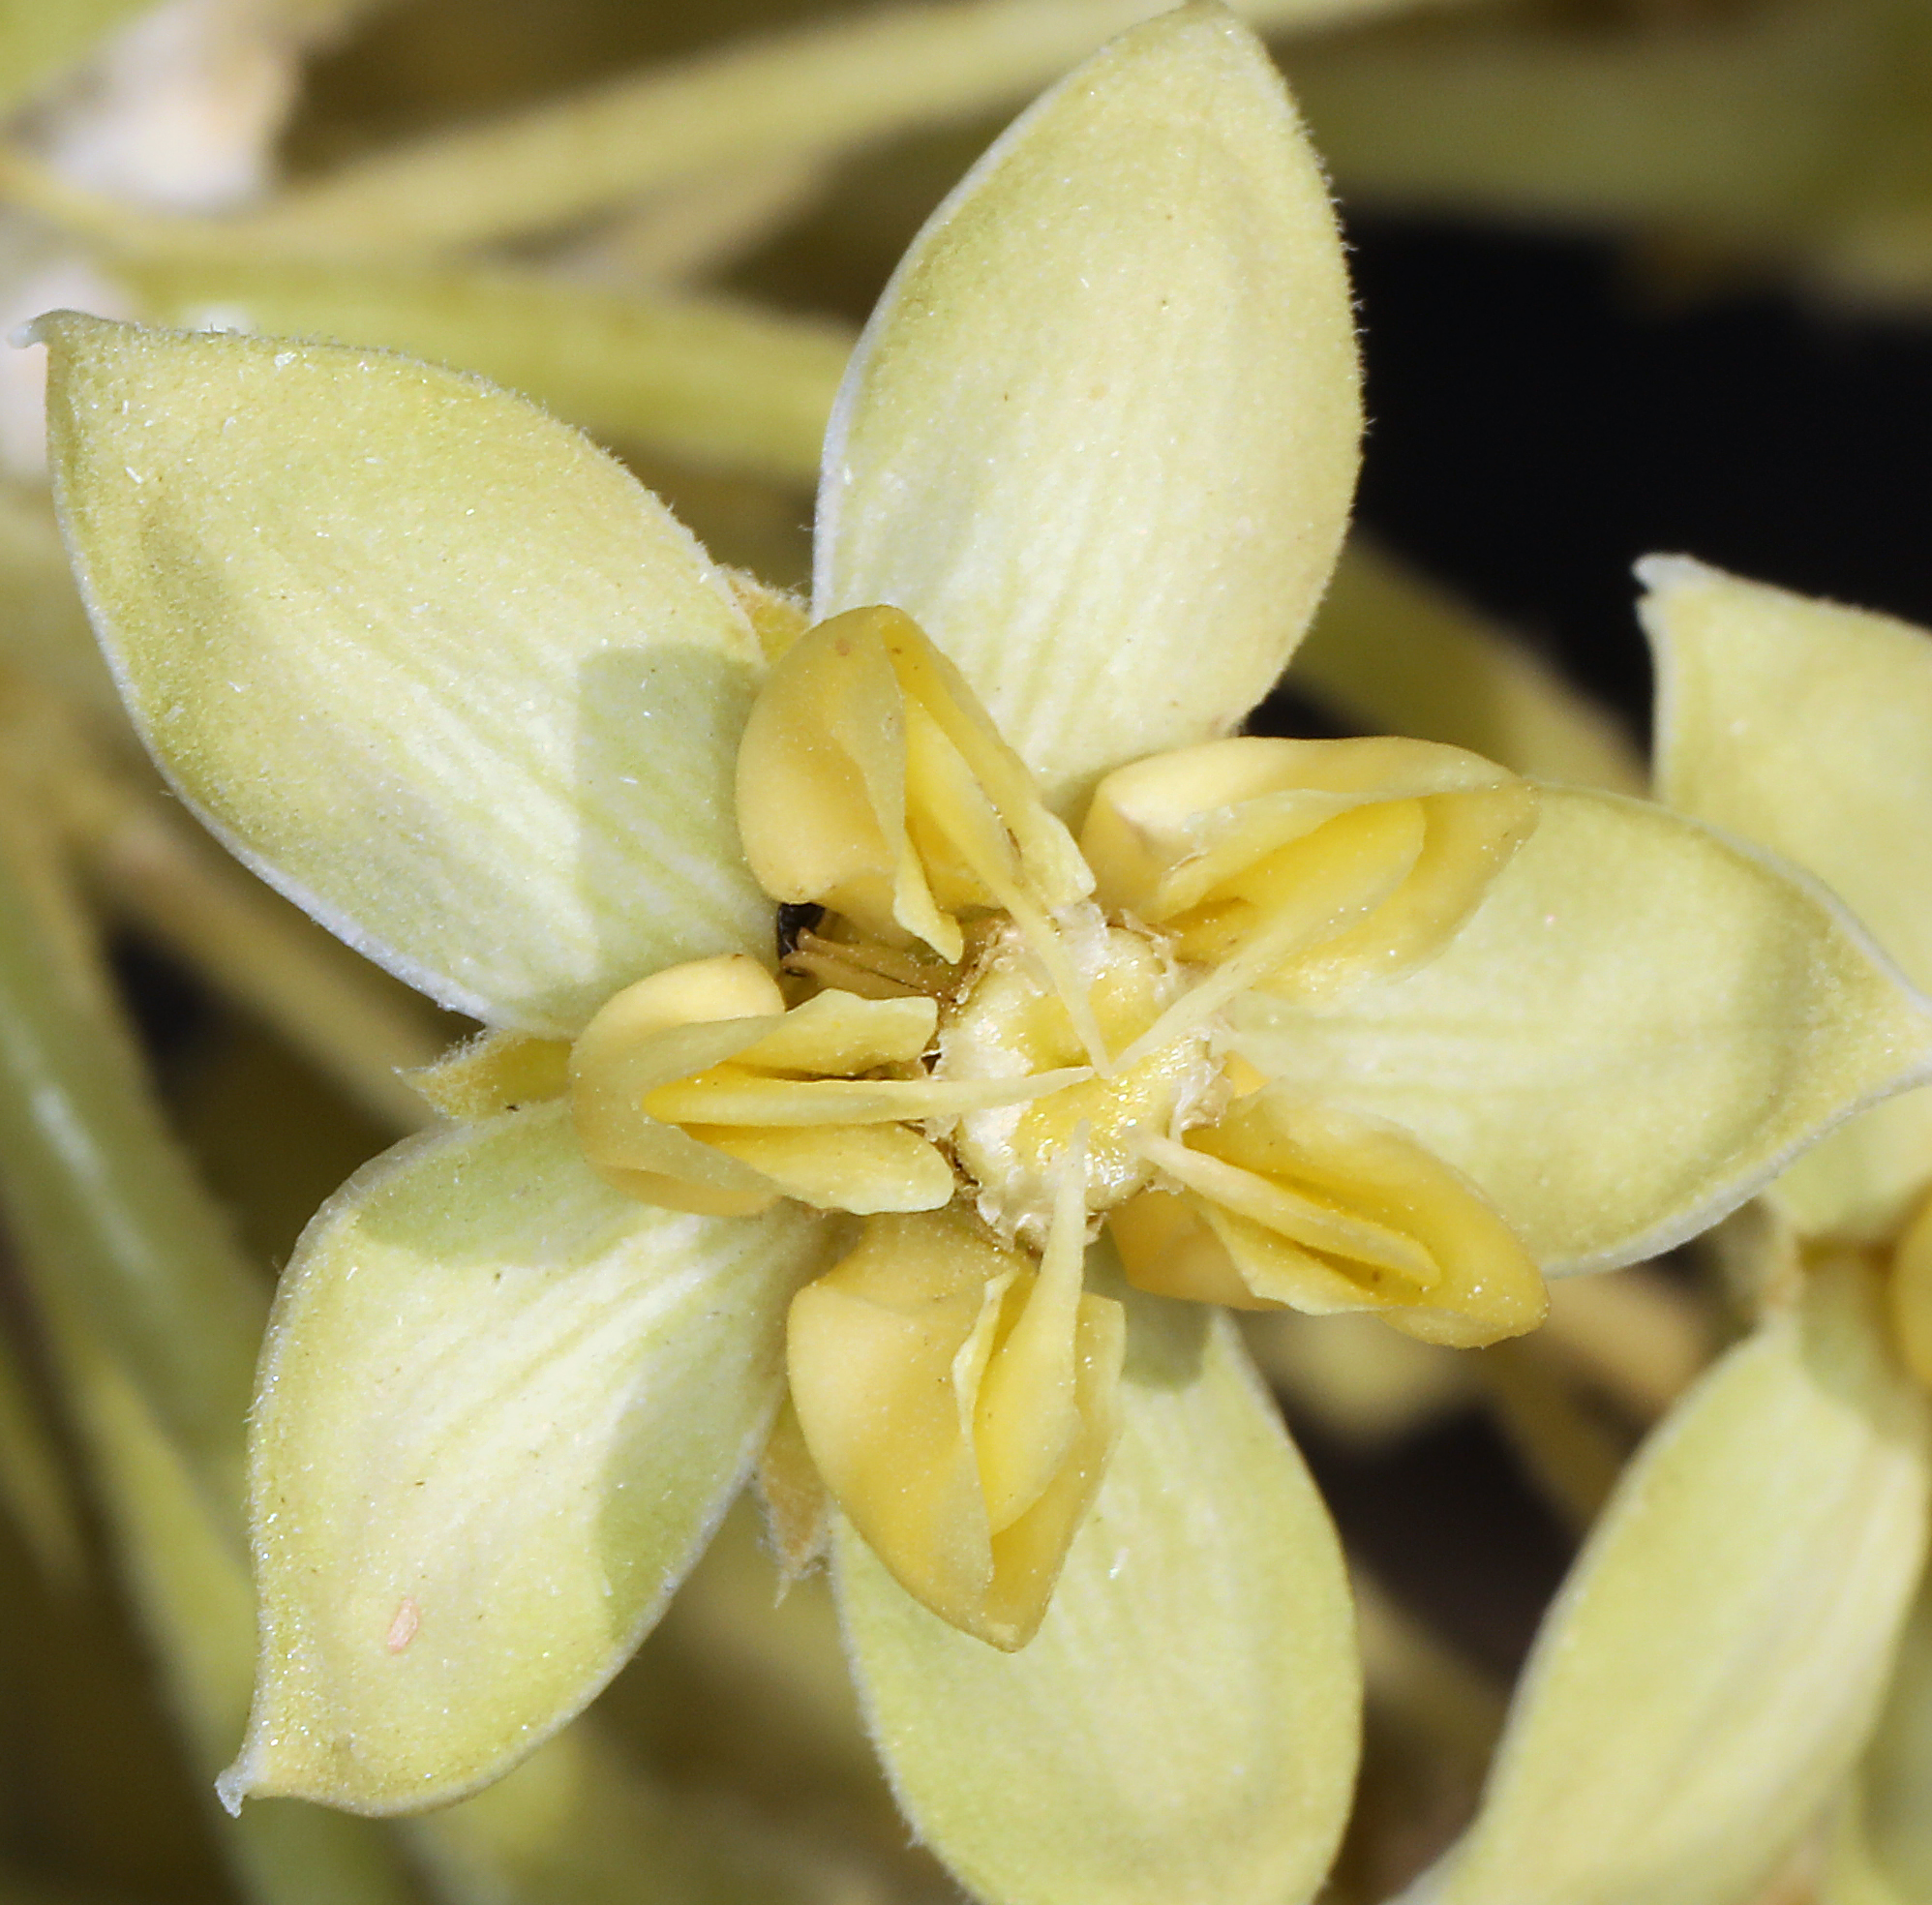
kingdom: Plantae
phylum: Tracheophyta
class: Magnoliopsida
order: Gentianales
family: Apocynaceae
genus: Asclepias
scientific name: Asclepias erosa
